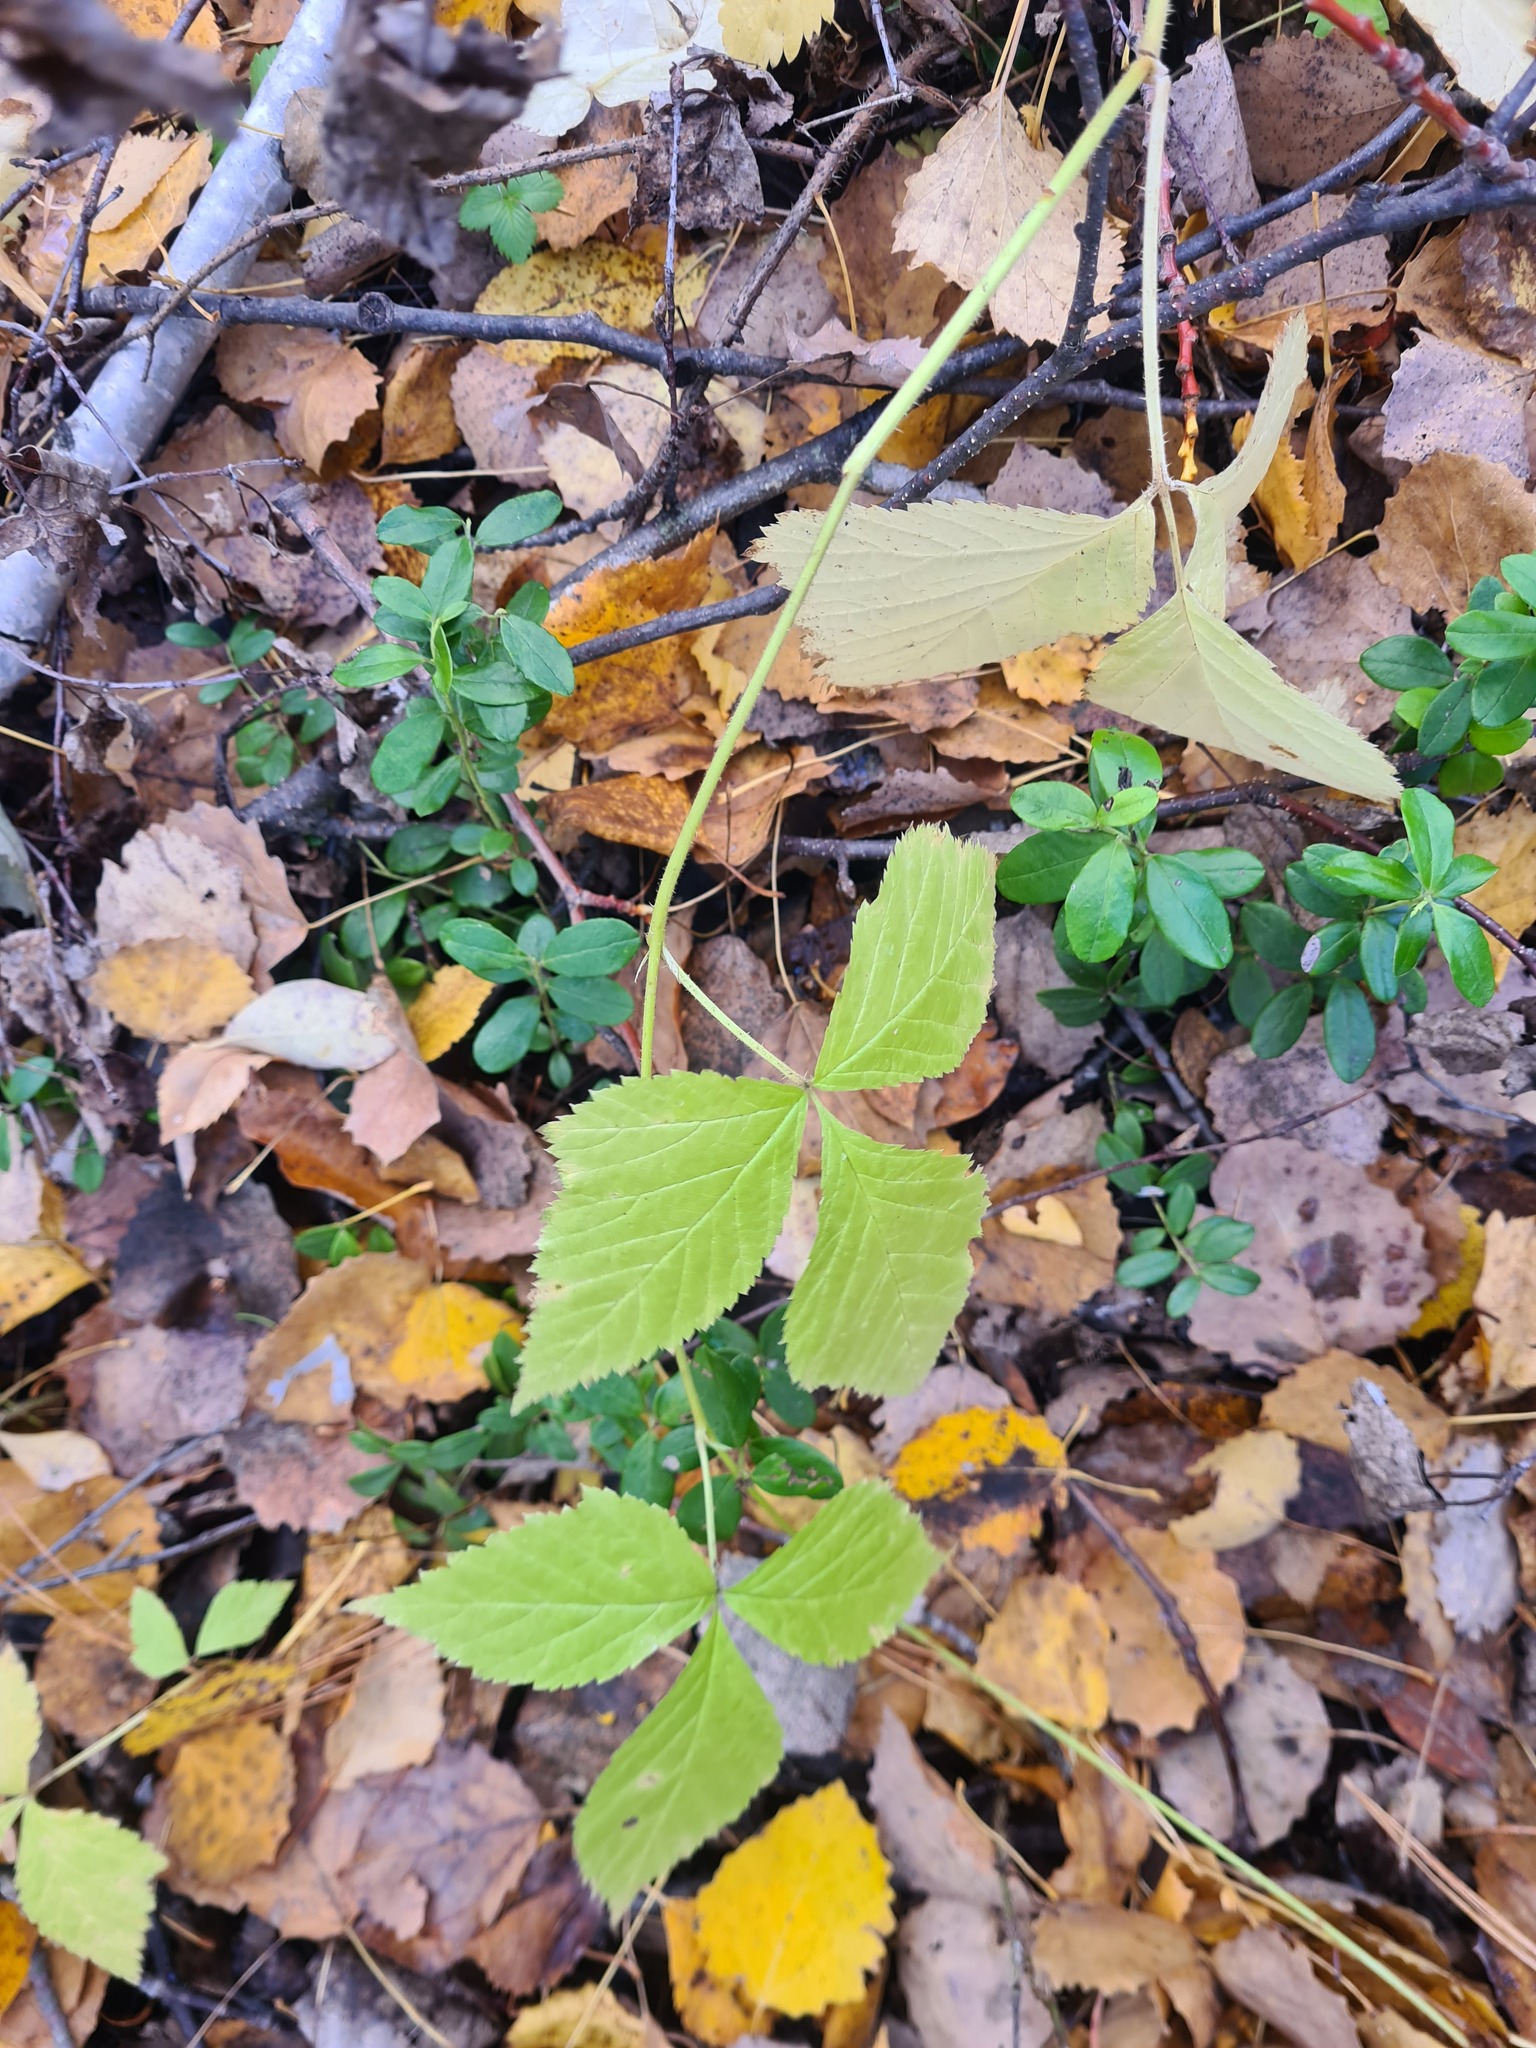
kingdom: Plantae
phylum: Tracheophyta
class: Magnoliopsida
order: Rosales
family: Rosaceae
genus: Rubus
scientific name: Rubus saxatilis
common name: Stone bramble
